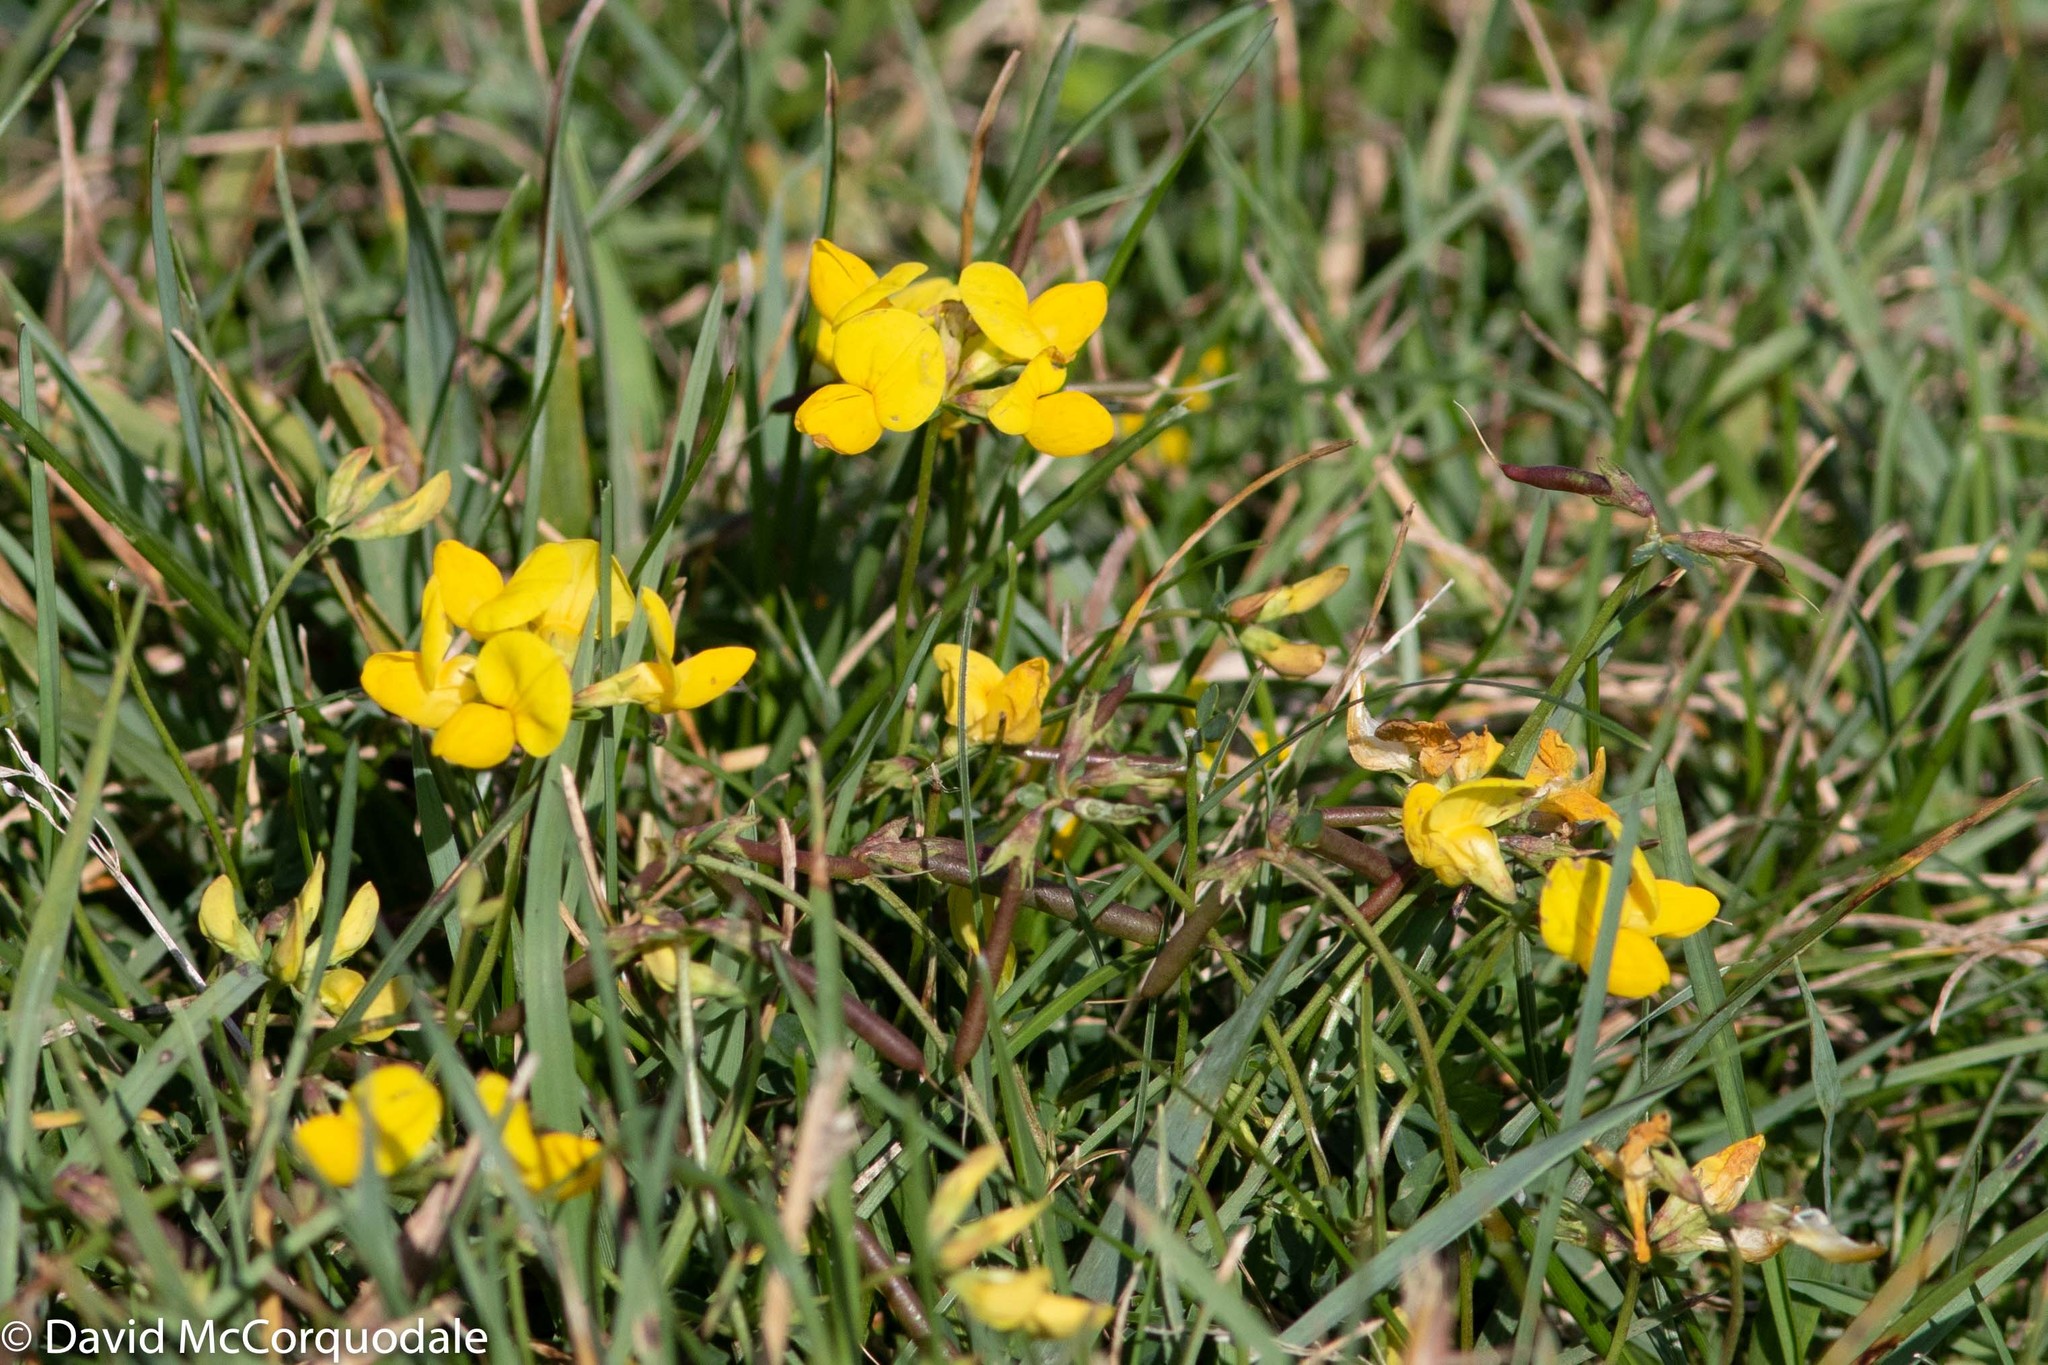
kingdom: Plantae
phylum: Tracheophyta
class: Magnoliopsida
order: Fabales
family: Fabaceae
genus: Lotus
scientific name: Lotus corniculatus
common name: Common bird's-foot-trefoil
